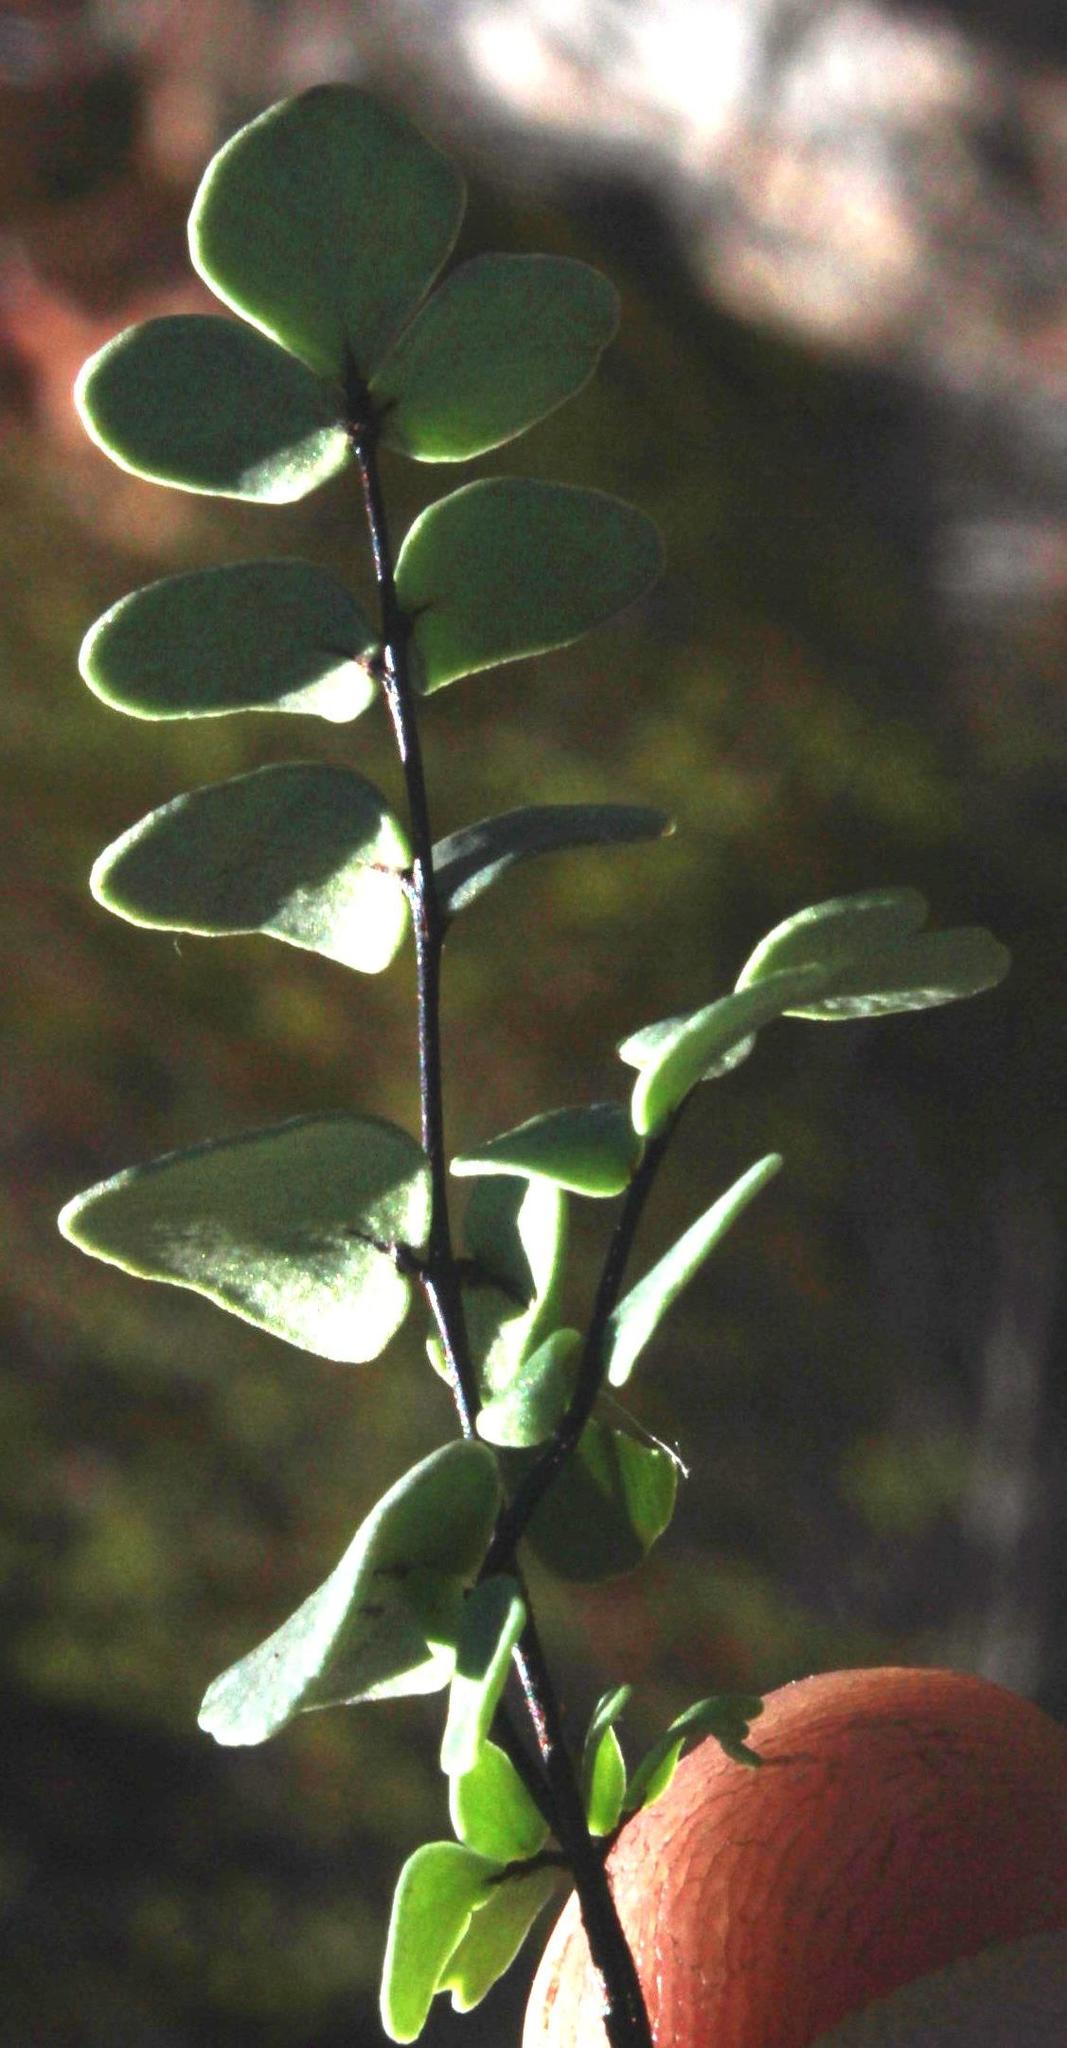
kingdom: Plantae
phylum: Tracheophyta
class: Polypodiopsida
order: Polypodiales
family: Pteridaceae
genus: Pellaea
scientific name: Pellaea leucomelas
